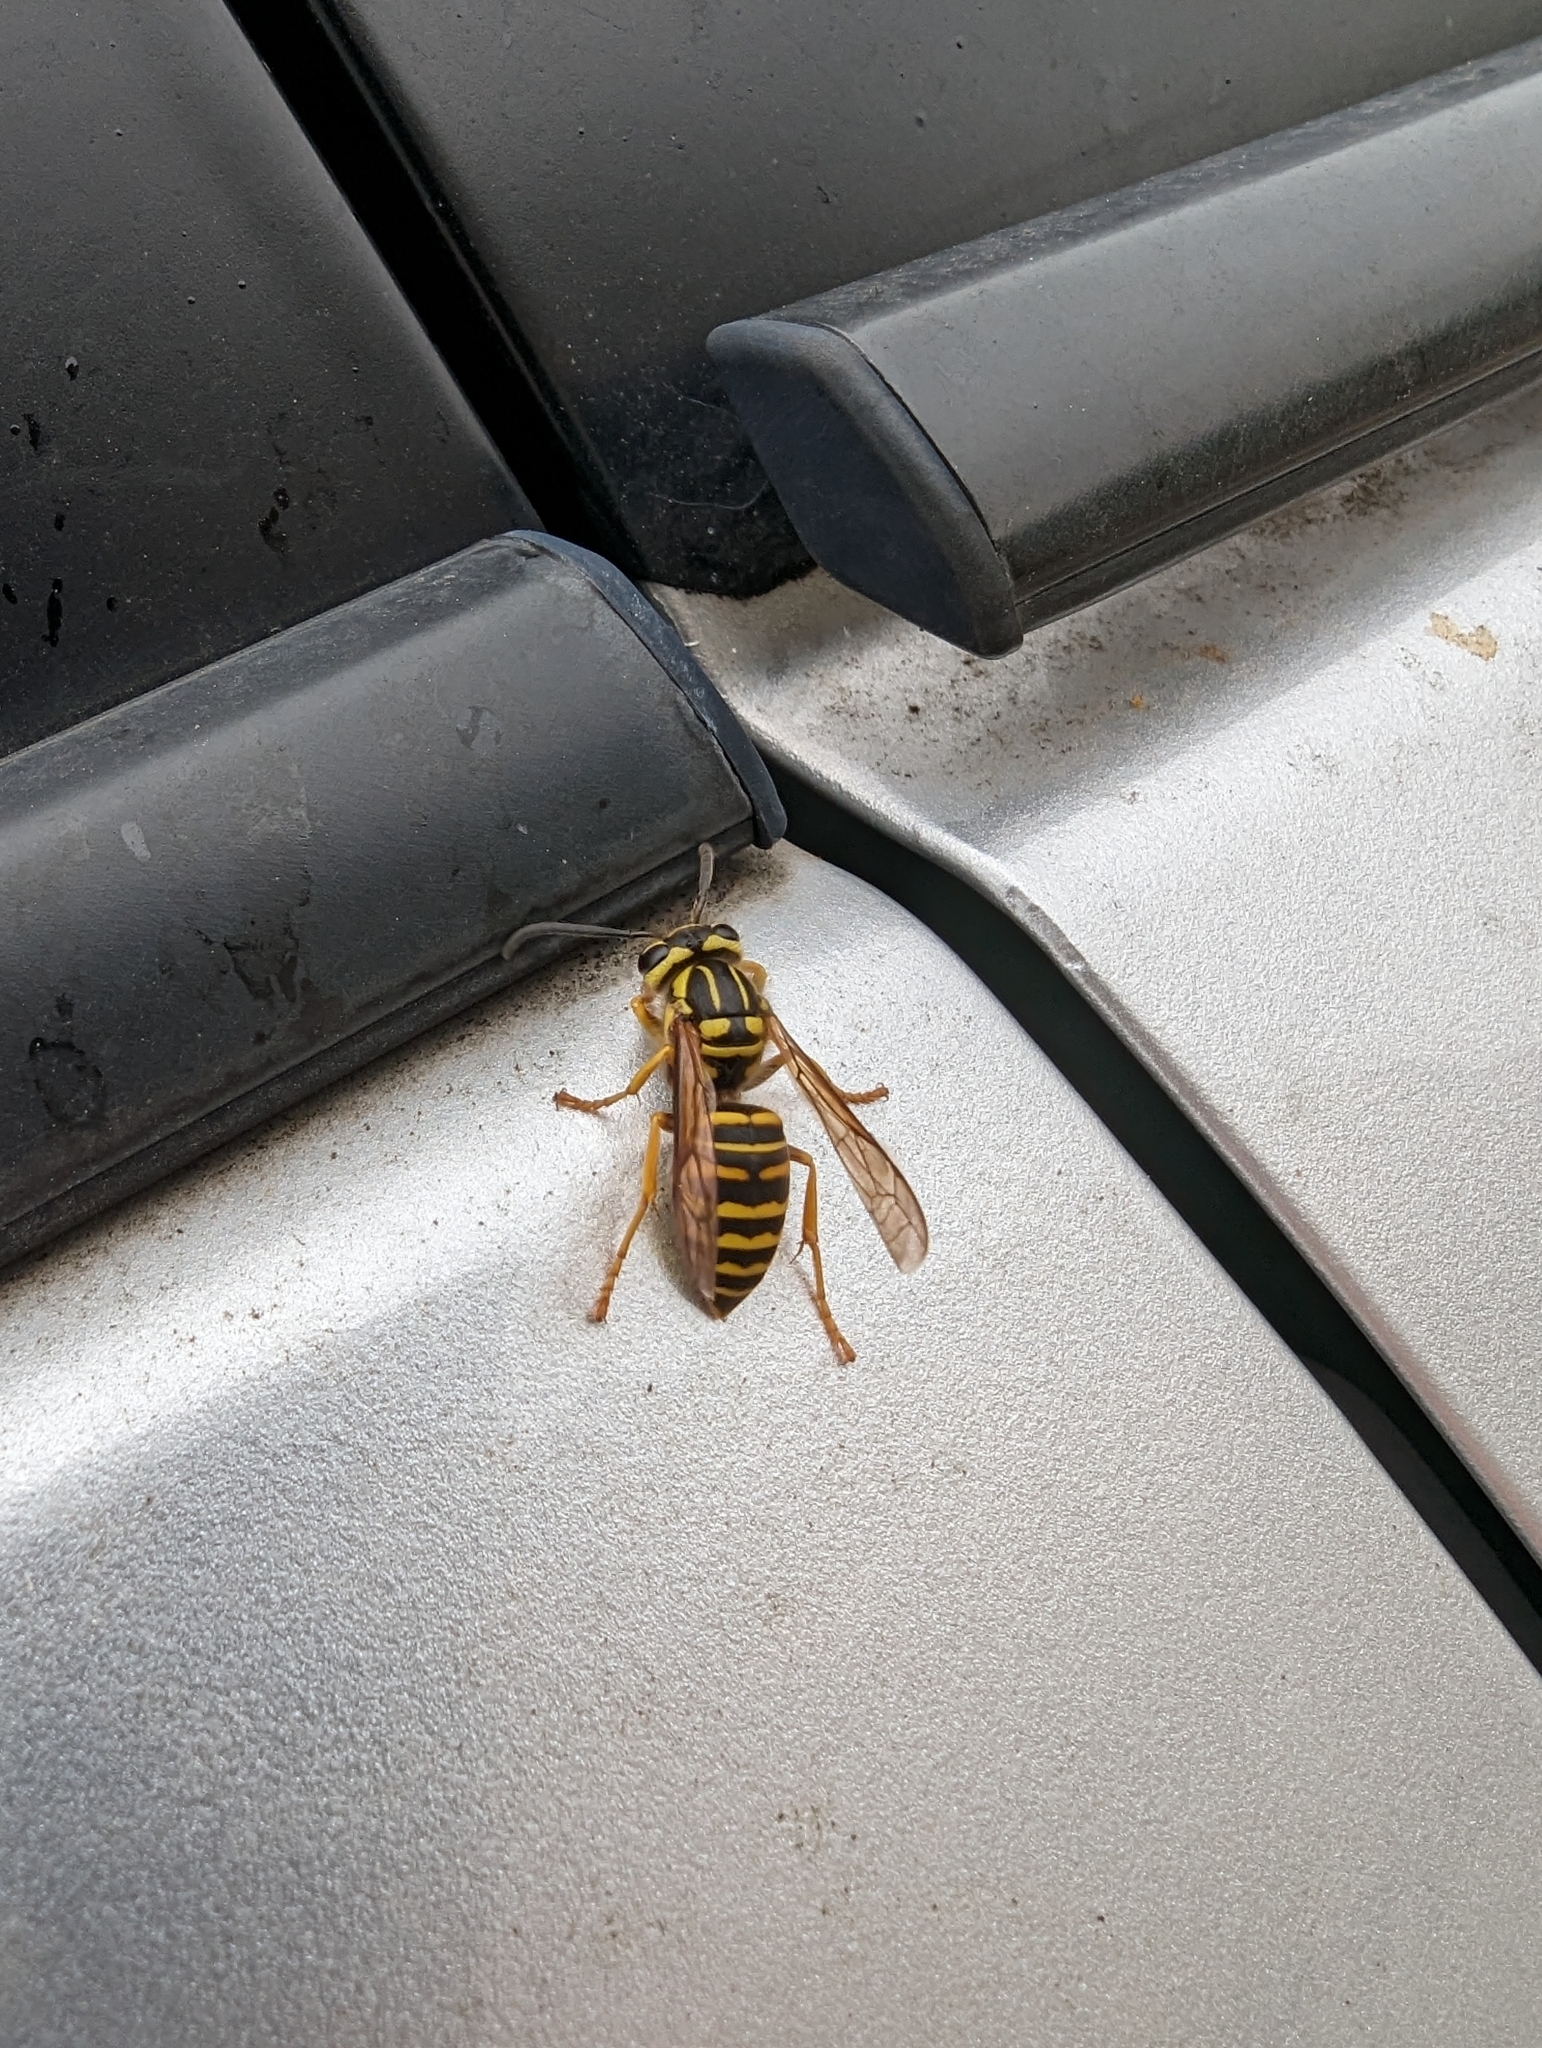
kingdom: Animalia
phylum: Arthropoda
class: Insecta
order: Hymenoptera
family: Vespidae
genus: Vespula
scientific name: Vespula squamosa
